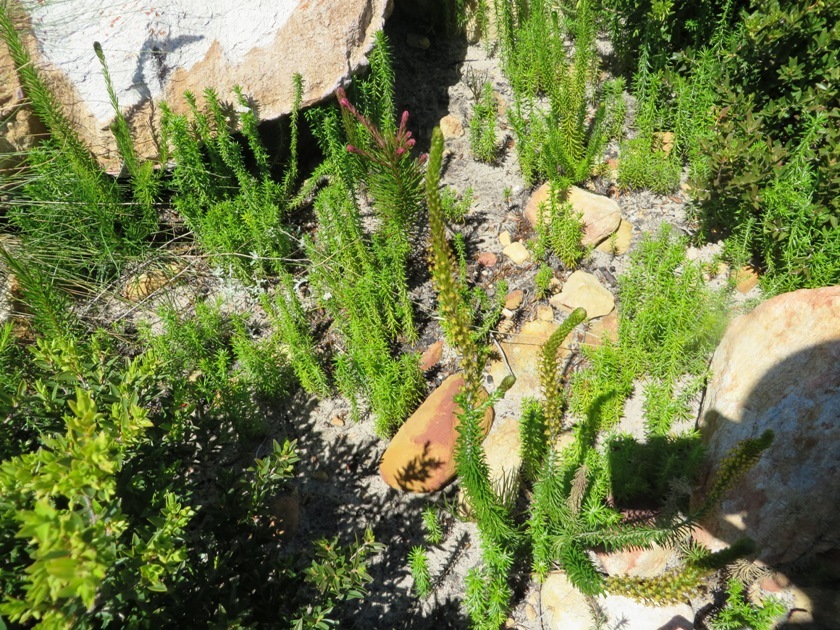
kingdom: Plantae
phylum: Tracheophyta
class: Magnoliopsida
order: Lamiales
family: Scrophulariaceae
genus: Microdon
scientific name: Microdon dubius
